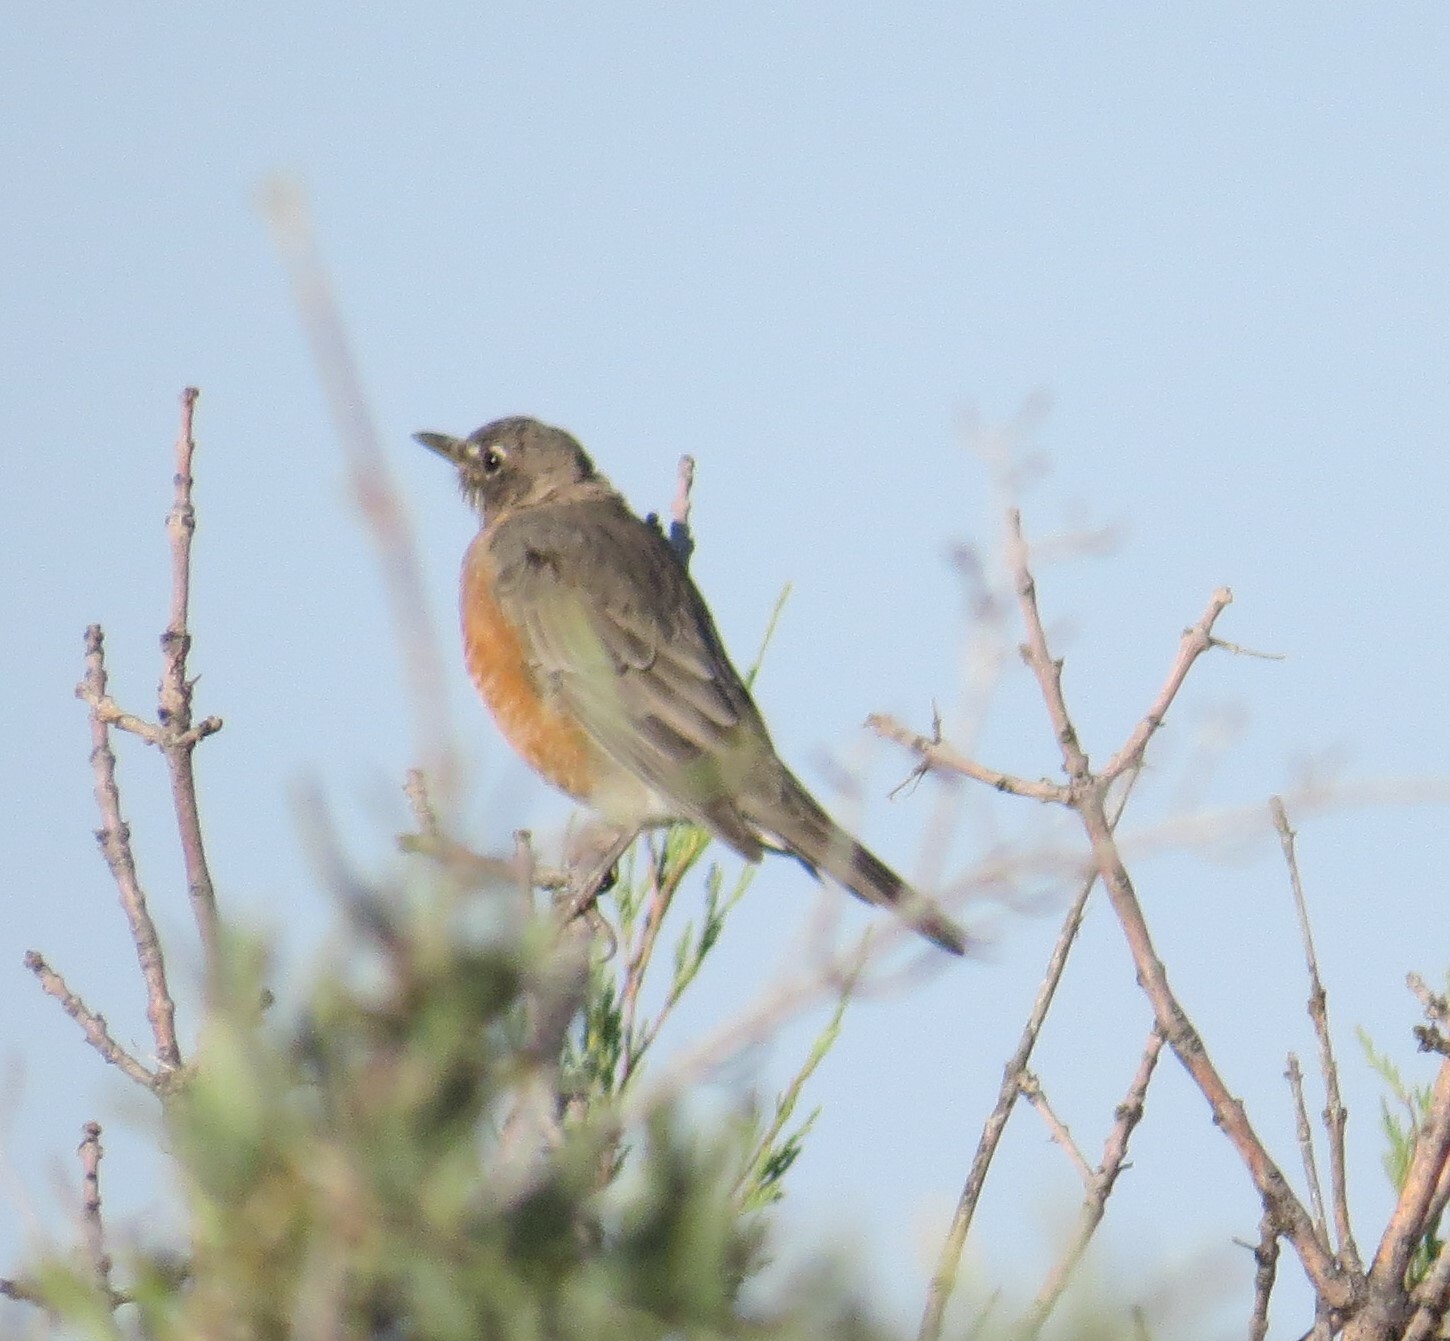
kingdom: Animalia
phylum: Chordata
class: Aves
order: Passeriformes
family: Turdidae
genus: Turdus
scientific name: Turdus migratorius
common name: American robin
